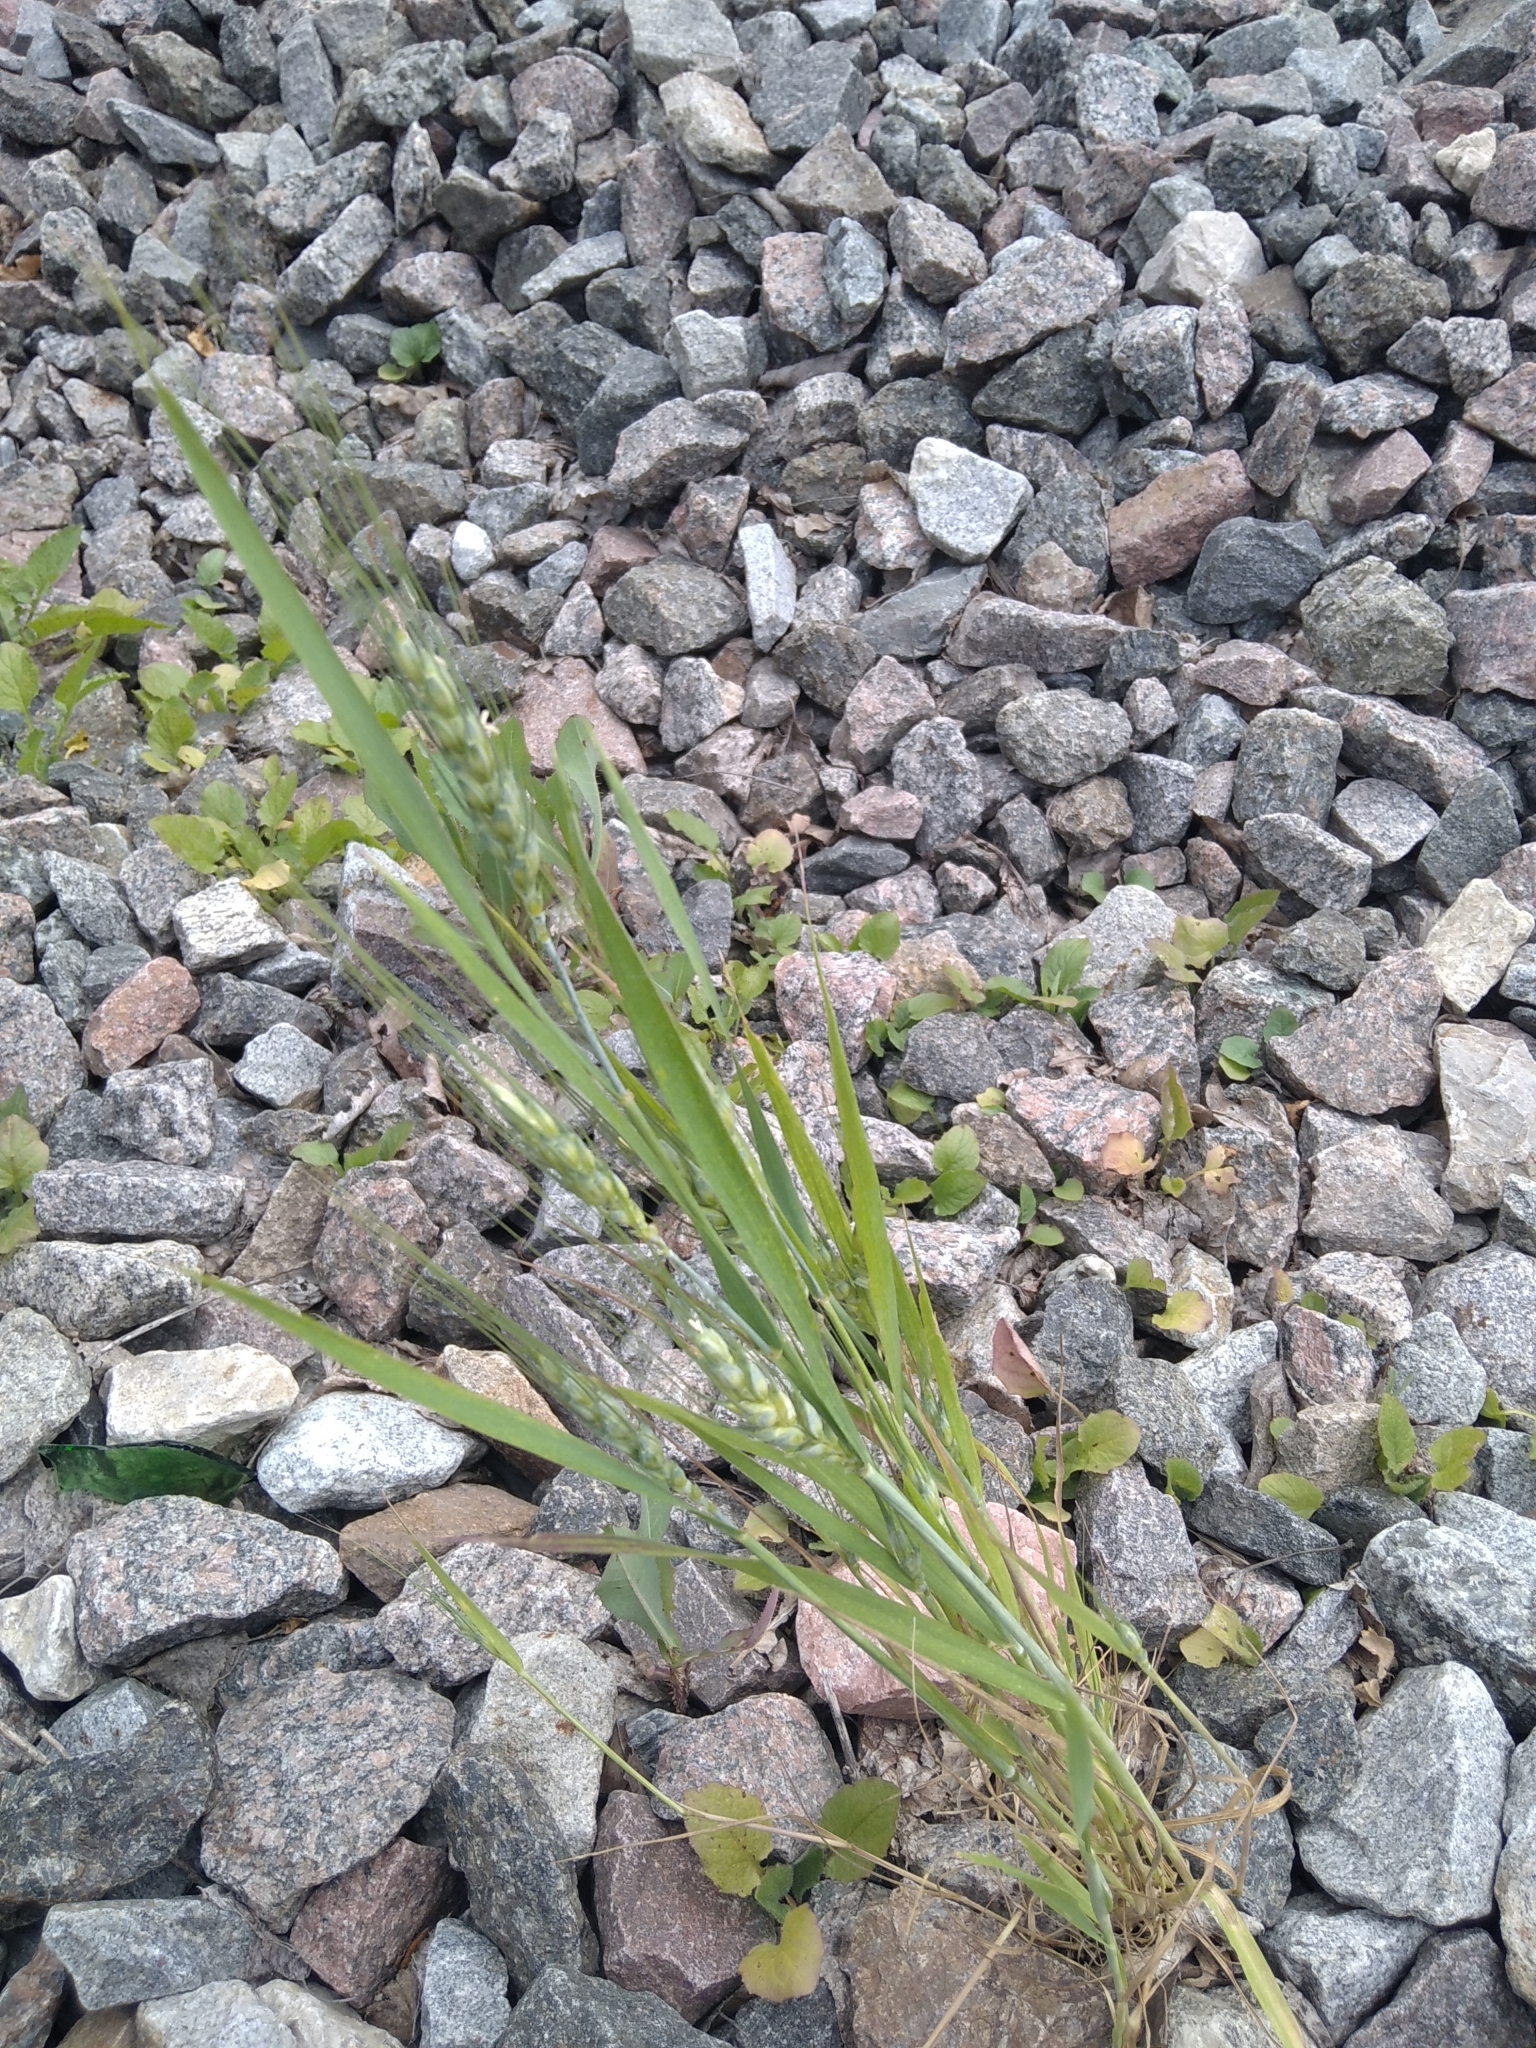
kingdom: Plantae
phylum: Tracheophyta
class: Liliopsida
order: Poales
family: Poaceae
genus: Triticum
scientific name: Triticum aestivum
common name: Common wheat
